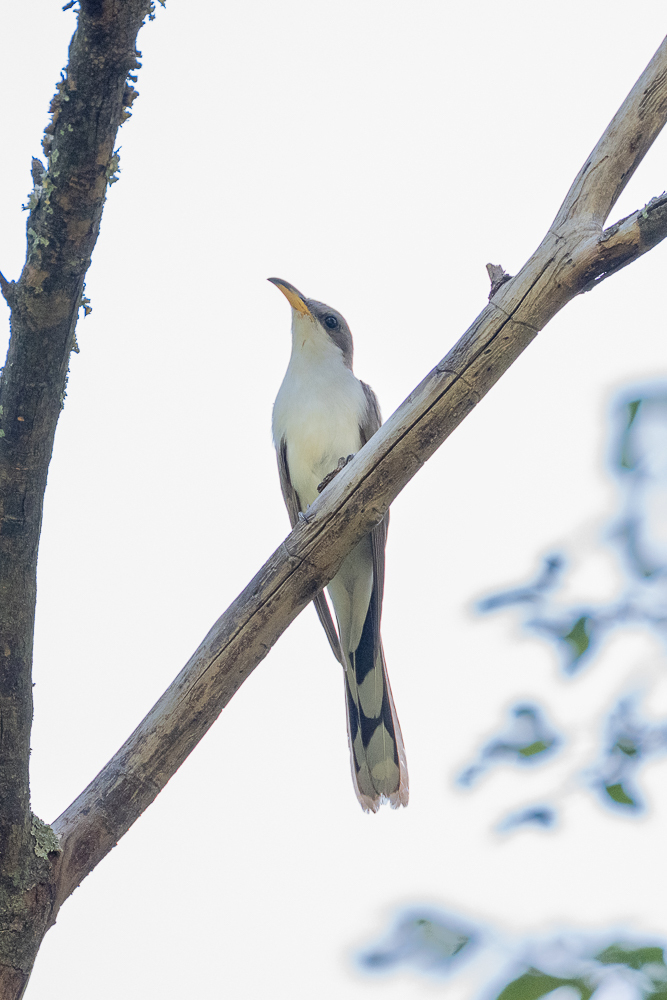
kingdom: Animalia
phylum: Chordata
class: Aves
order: Cuculiformes
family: Cuculidae
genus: Coccyzus
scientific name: Coccyzus americanus
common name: Yellow-billed cuckoo
